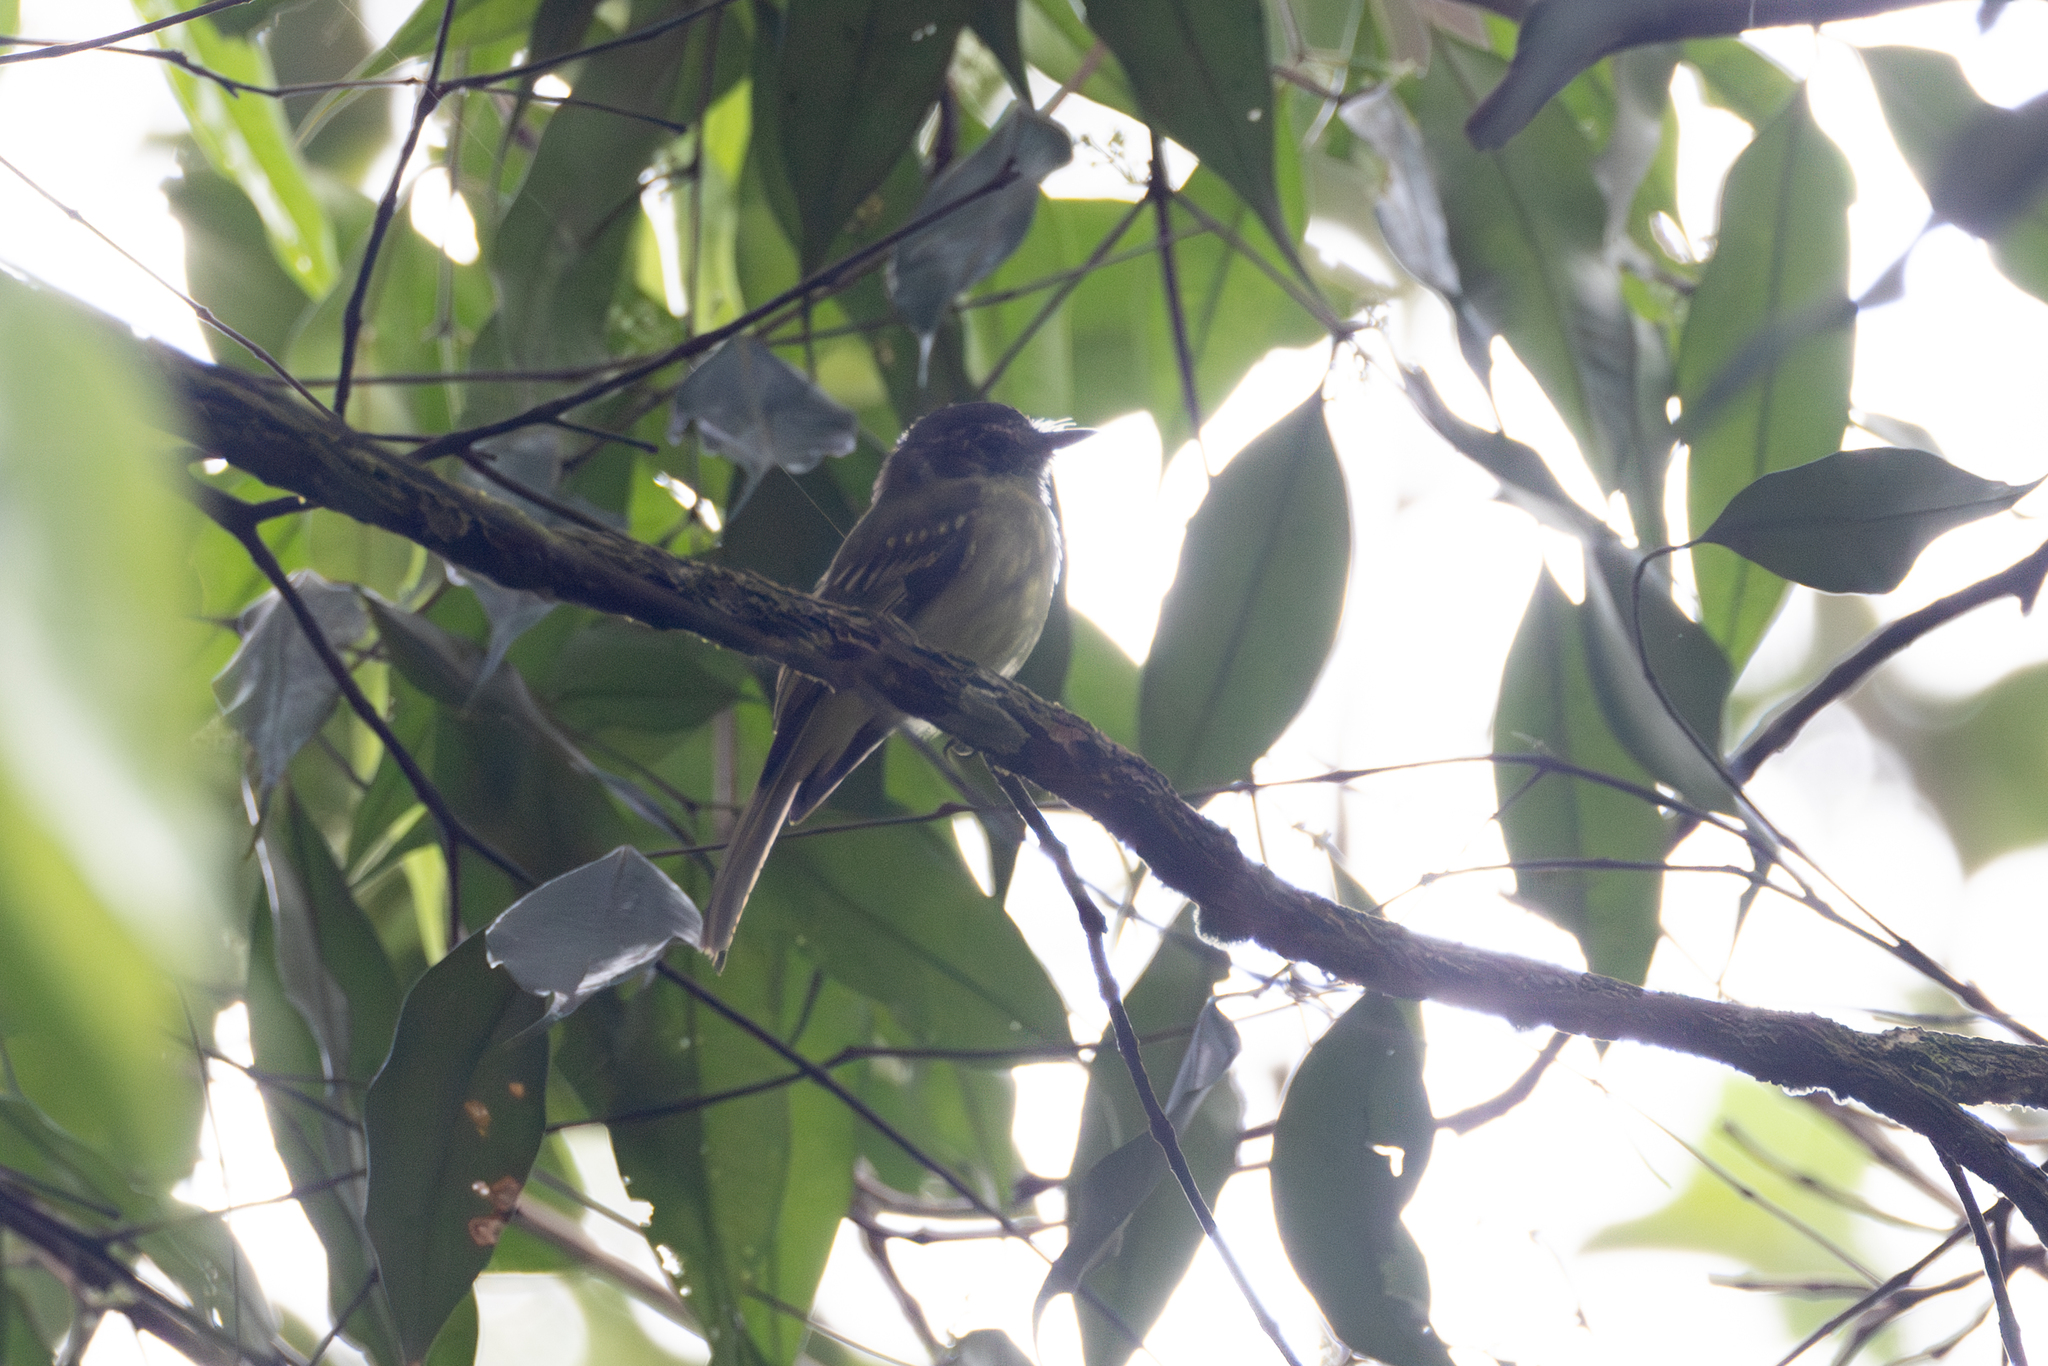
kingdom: Animalia
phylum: Chordata
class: Aves
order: Passeriformes
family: Tyrannidae
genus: Leptopogon
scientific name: Leptopogon superciliaris
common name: Slaty-capped flycatcher
